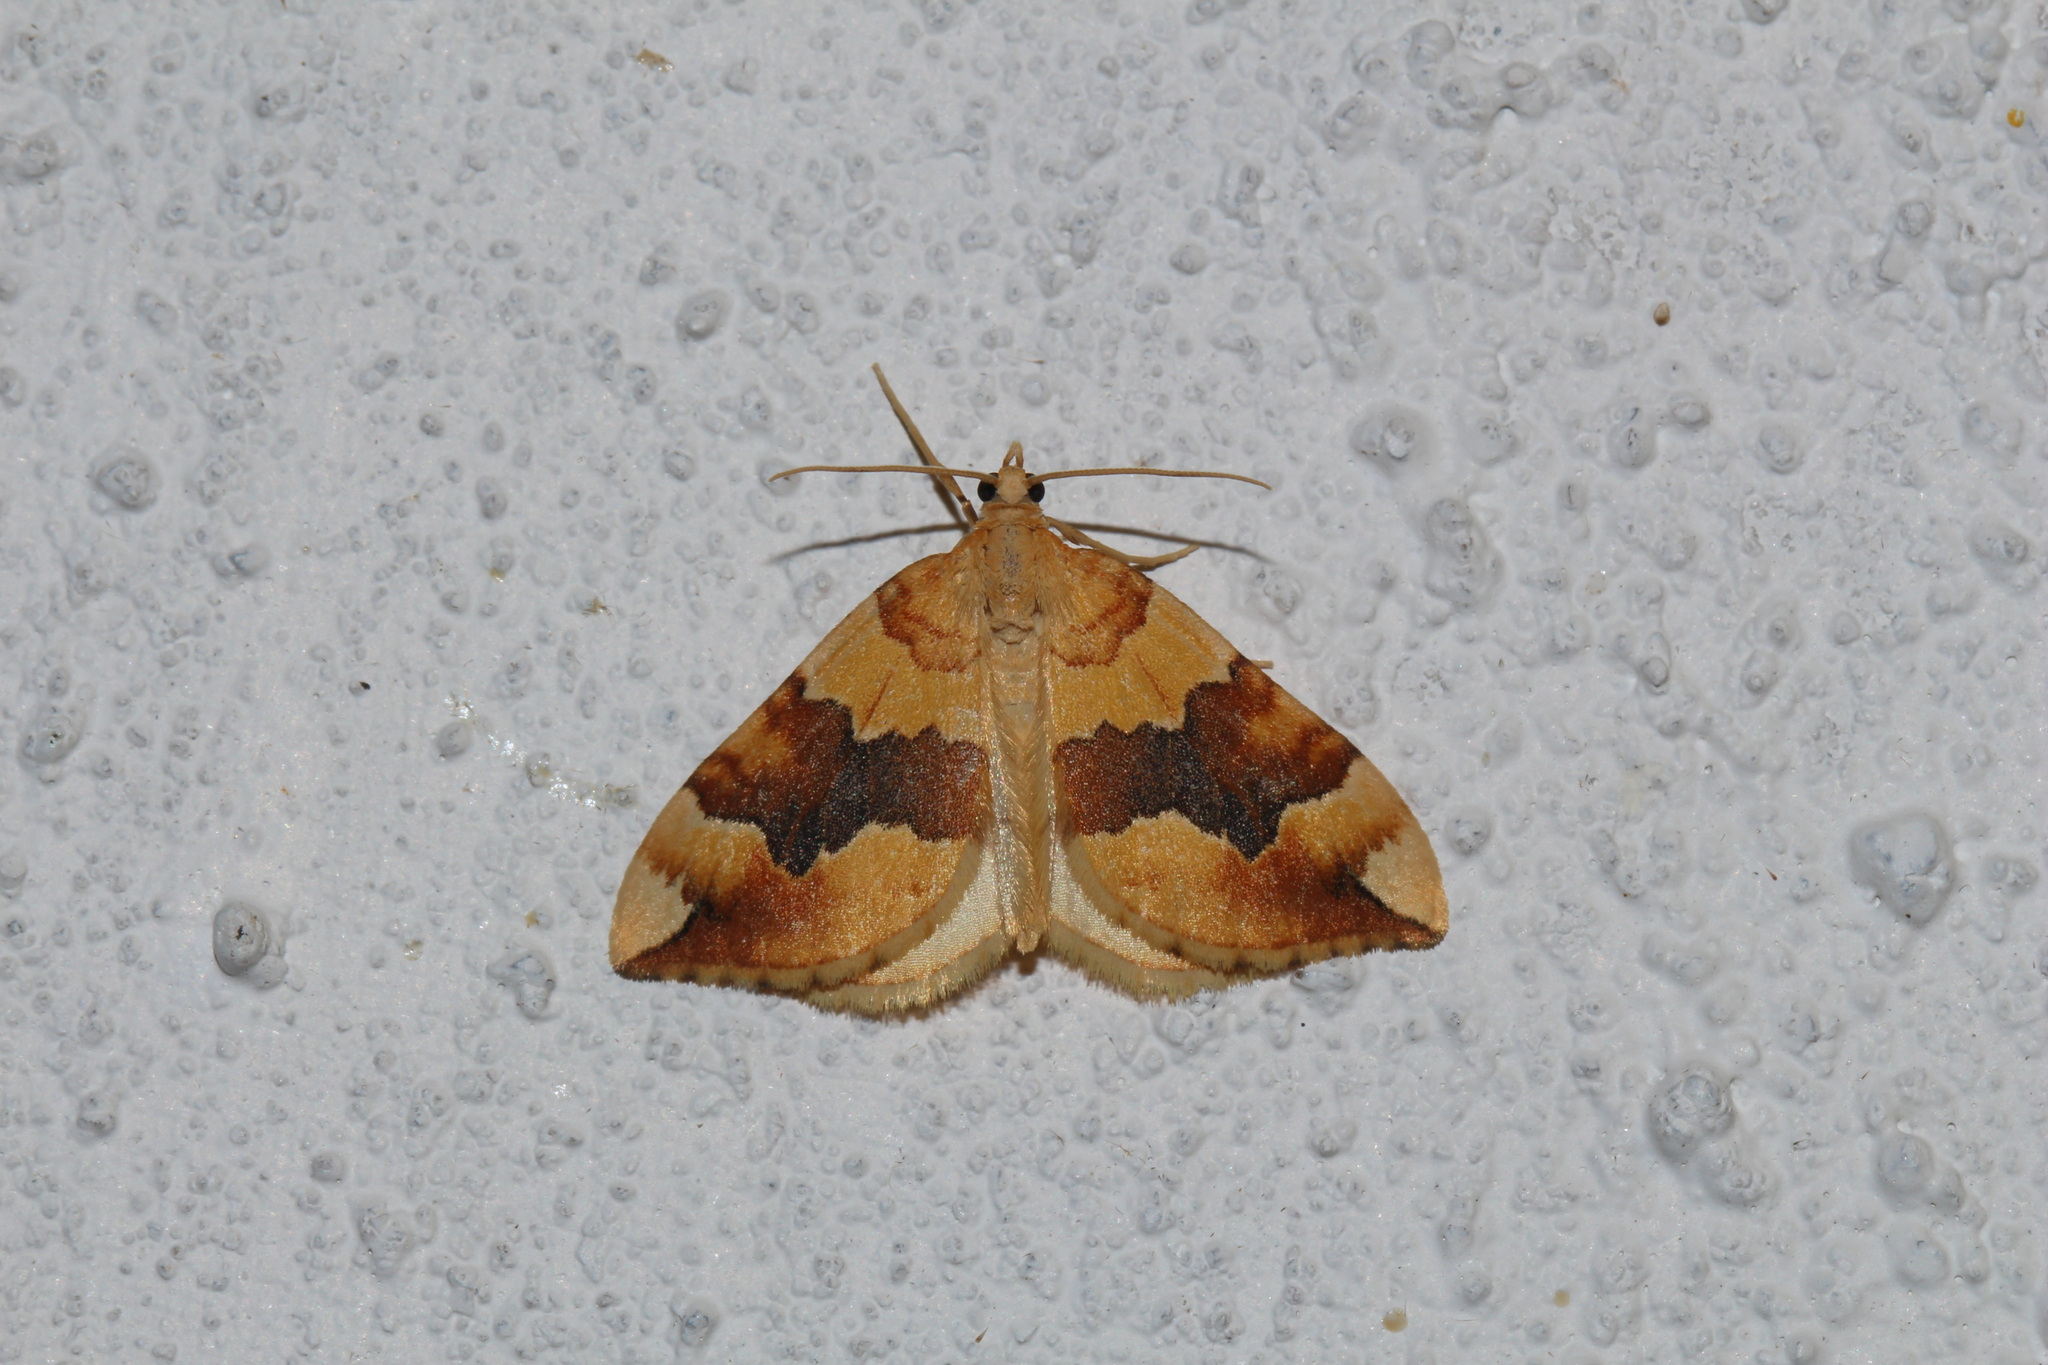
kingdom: Animalia
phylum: Arthropoda
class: Insecta
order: Lepidoptera
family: Geometridae
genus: Cidaria
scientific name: Cidaria fulvata
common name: Barred yellow
